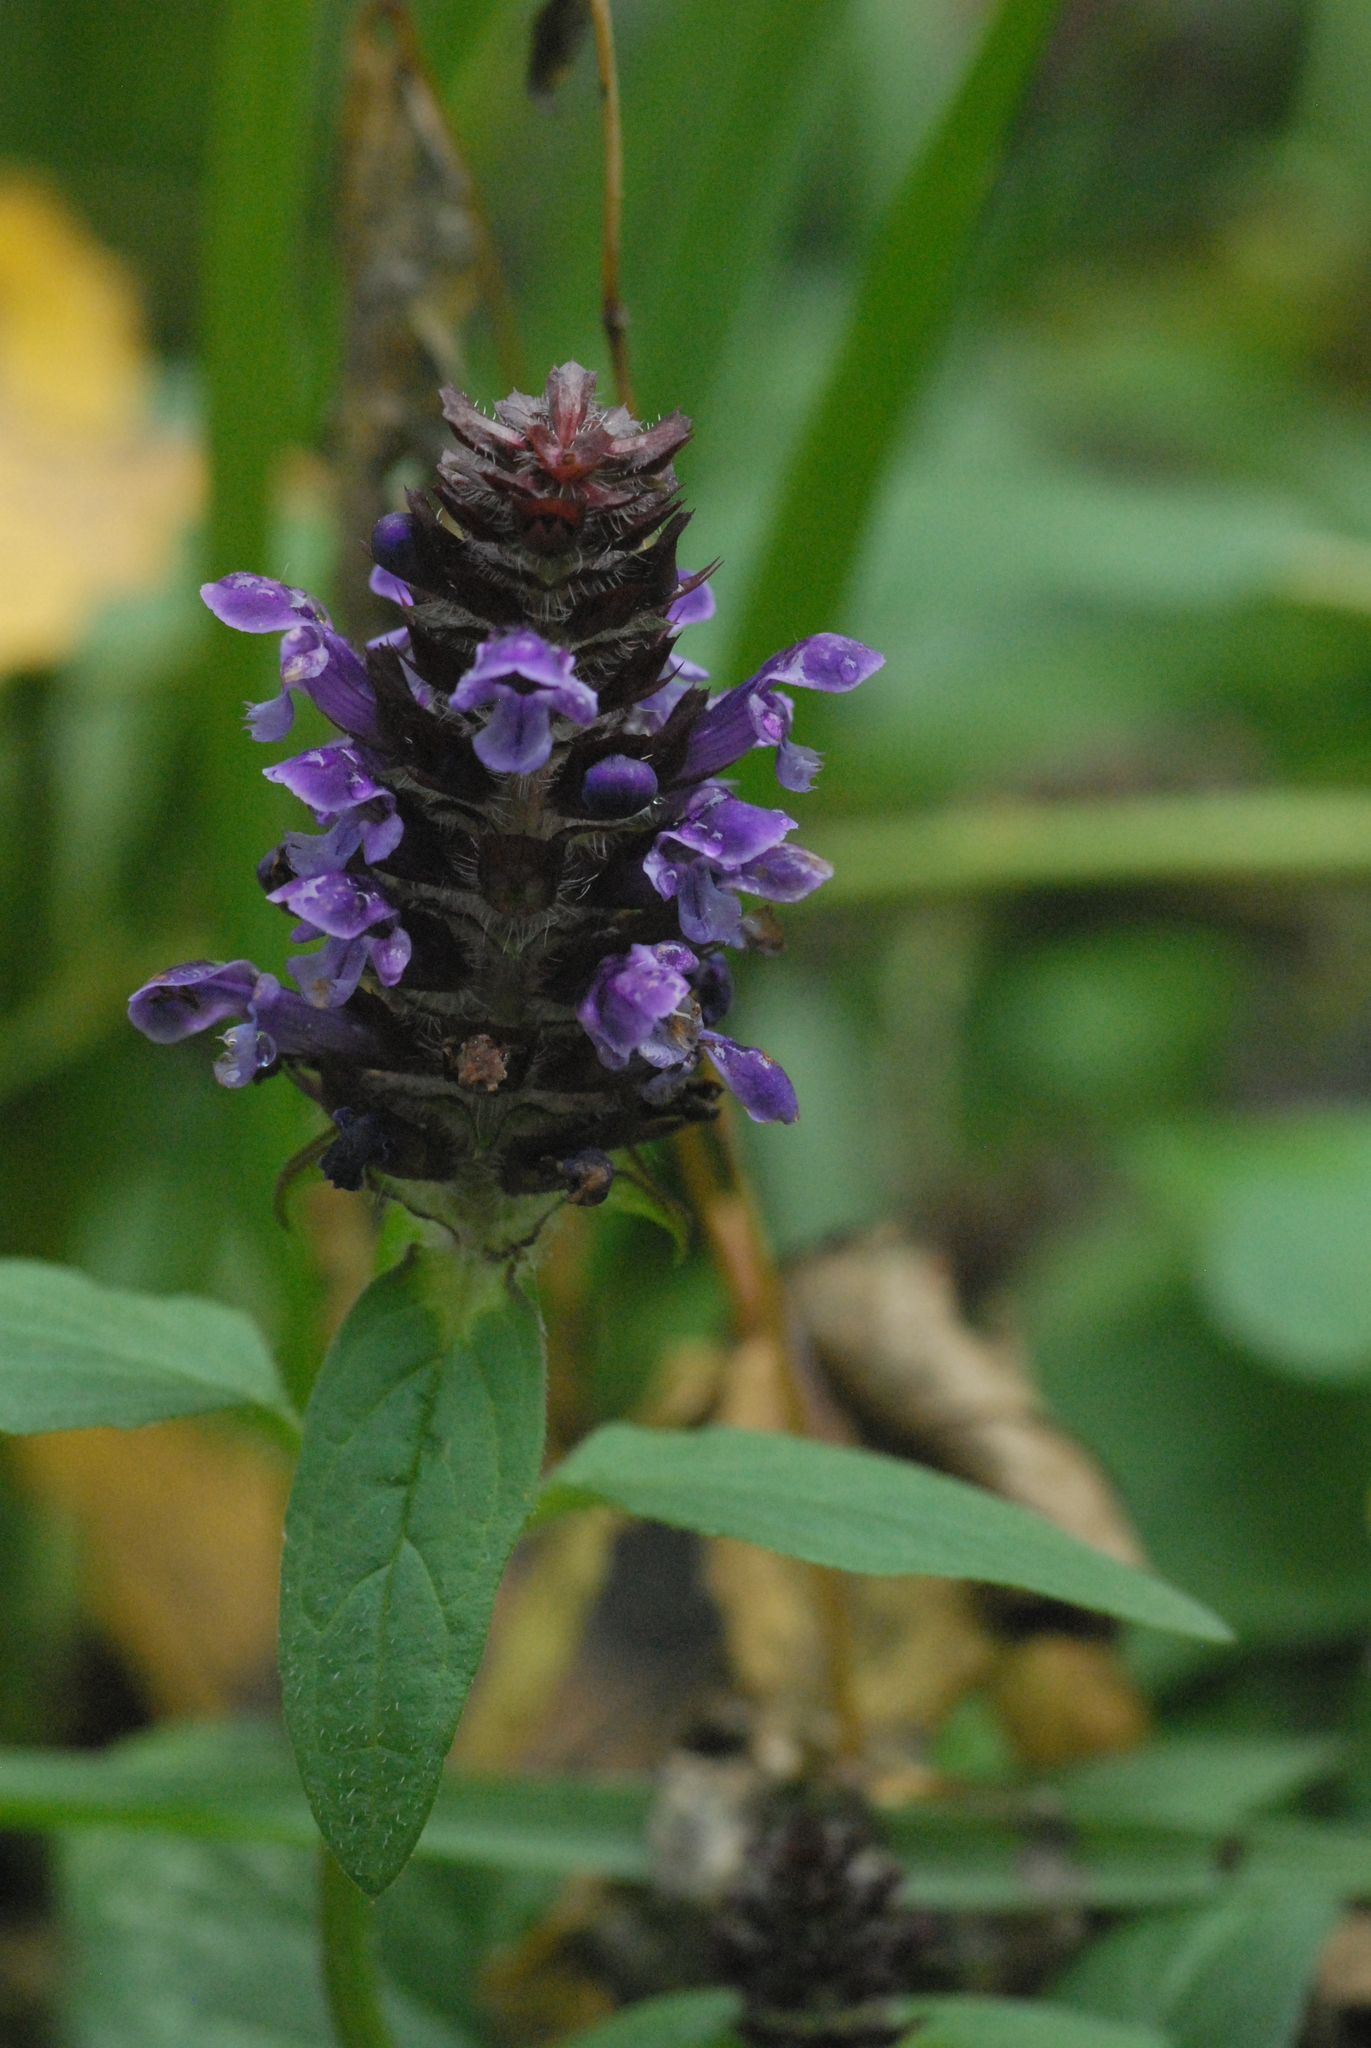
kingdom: Plantae
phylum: Tracheophyta
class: Magnoliopsida
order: Lamiales
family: Lamiaceae
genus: Prunella
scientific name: Prunella vulgaris
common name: Heal-all
